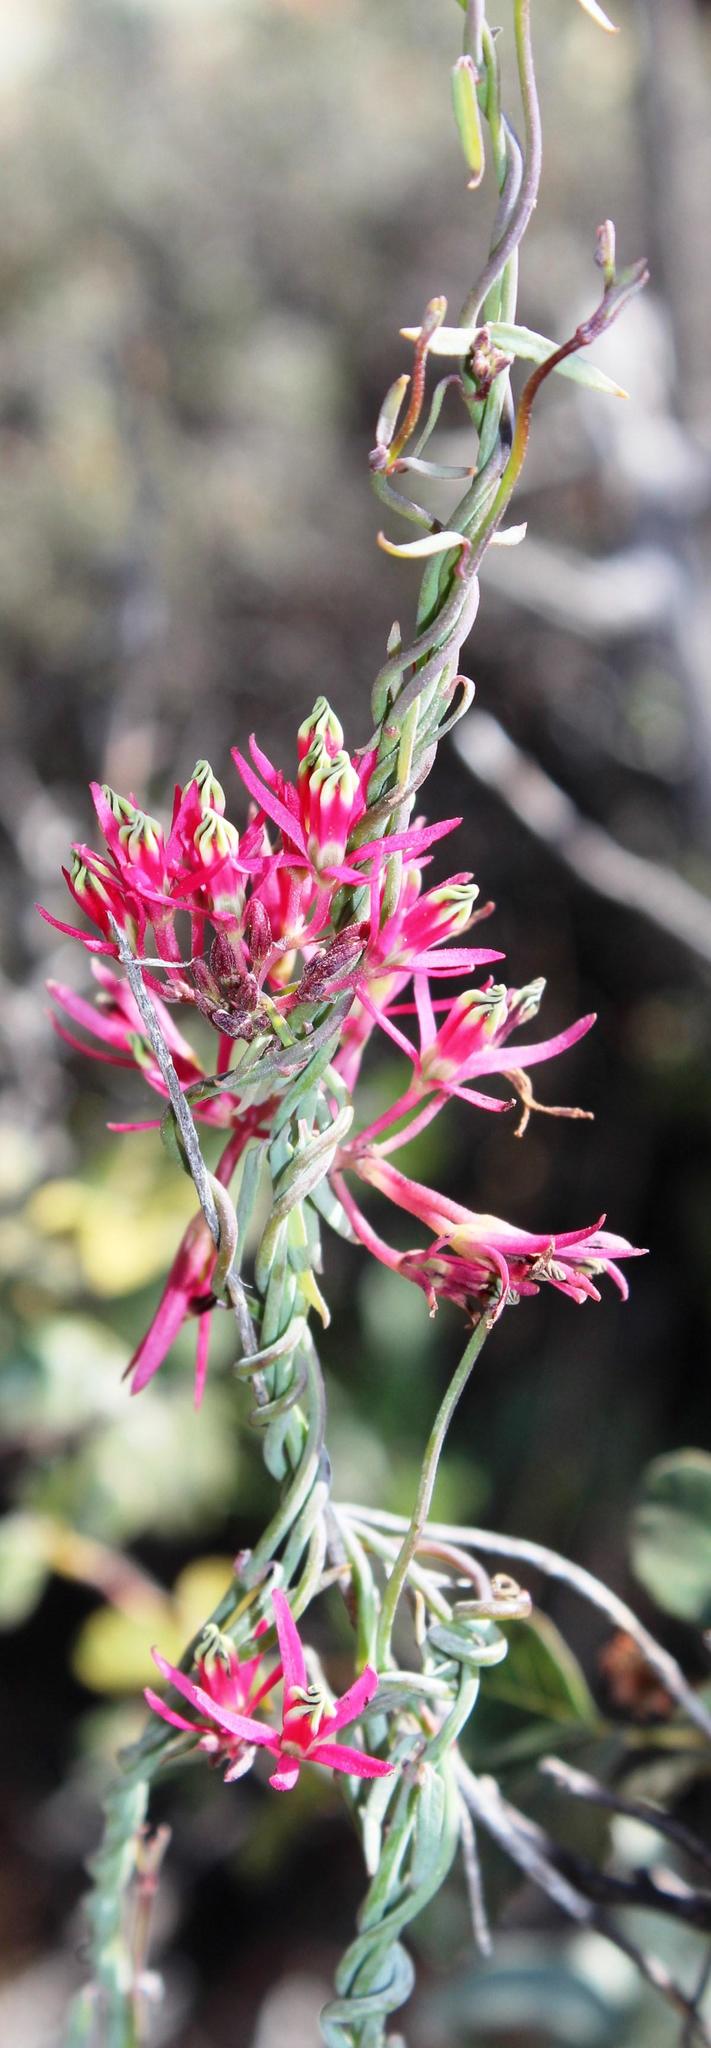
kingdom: Plantae
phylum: Tracheophyta
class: Magnoliopsida
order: Gentianales
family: Apocynaceae
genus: Microloma
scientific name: Microloma calycinum
